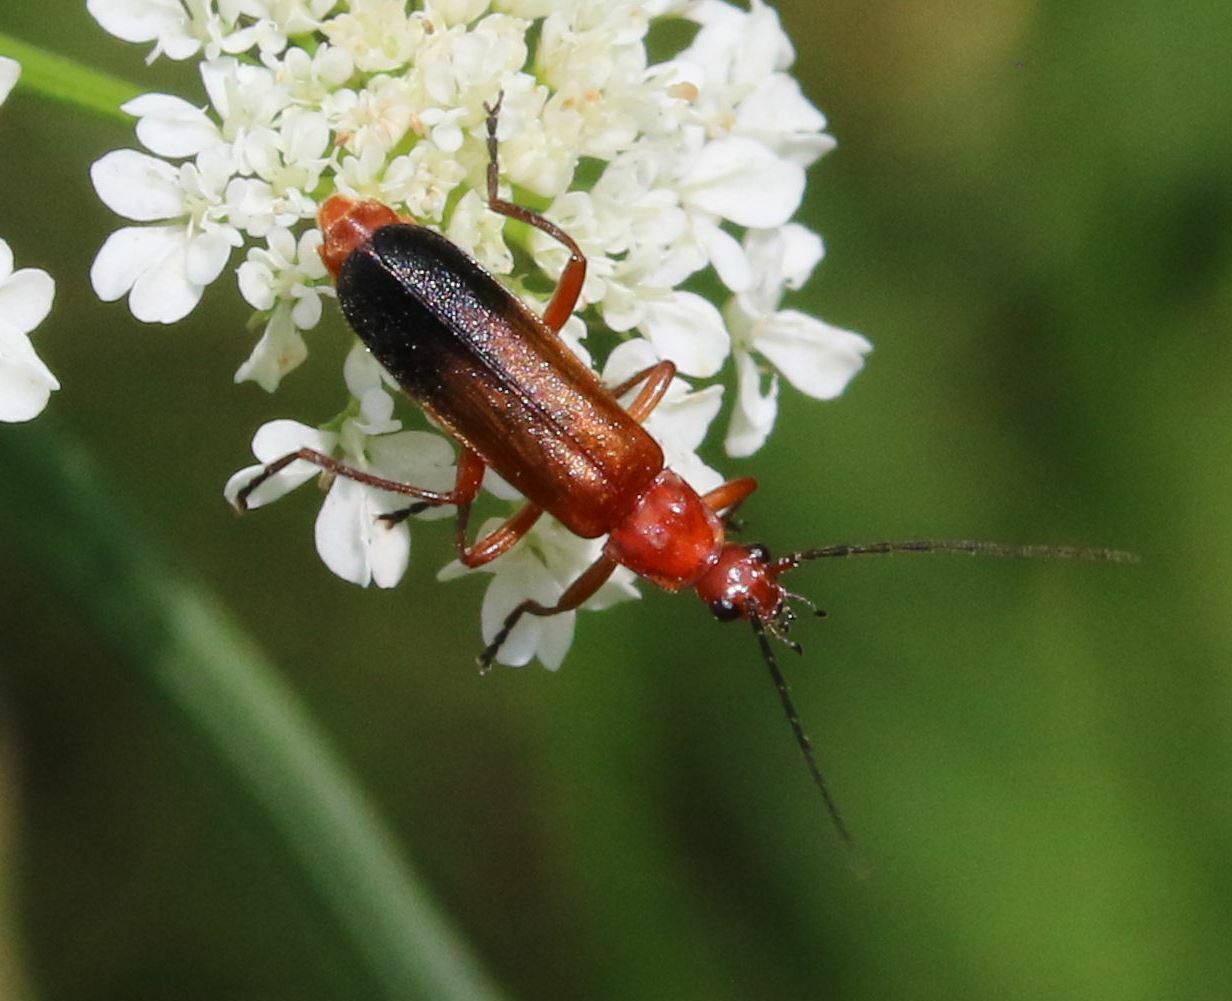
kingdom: Animalia
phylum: Arthropoda
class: Insecta
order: Coleoptera
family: Cantharidae
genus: Rhagonycha
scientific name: Rhagonycha fulva
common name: Common red soldier beetle
